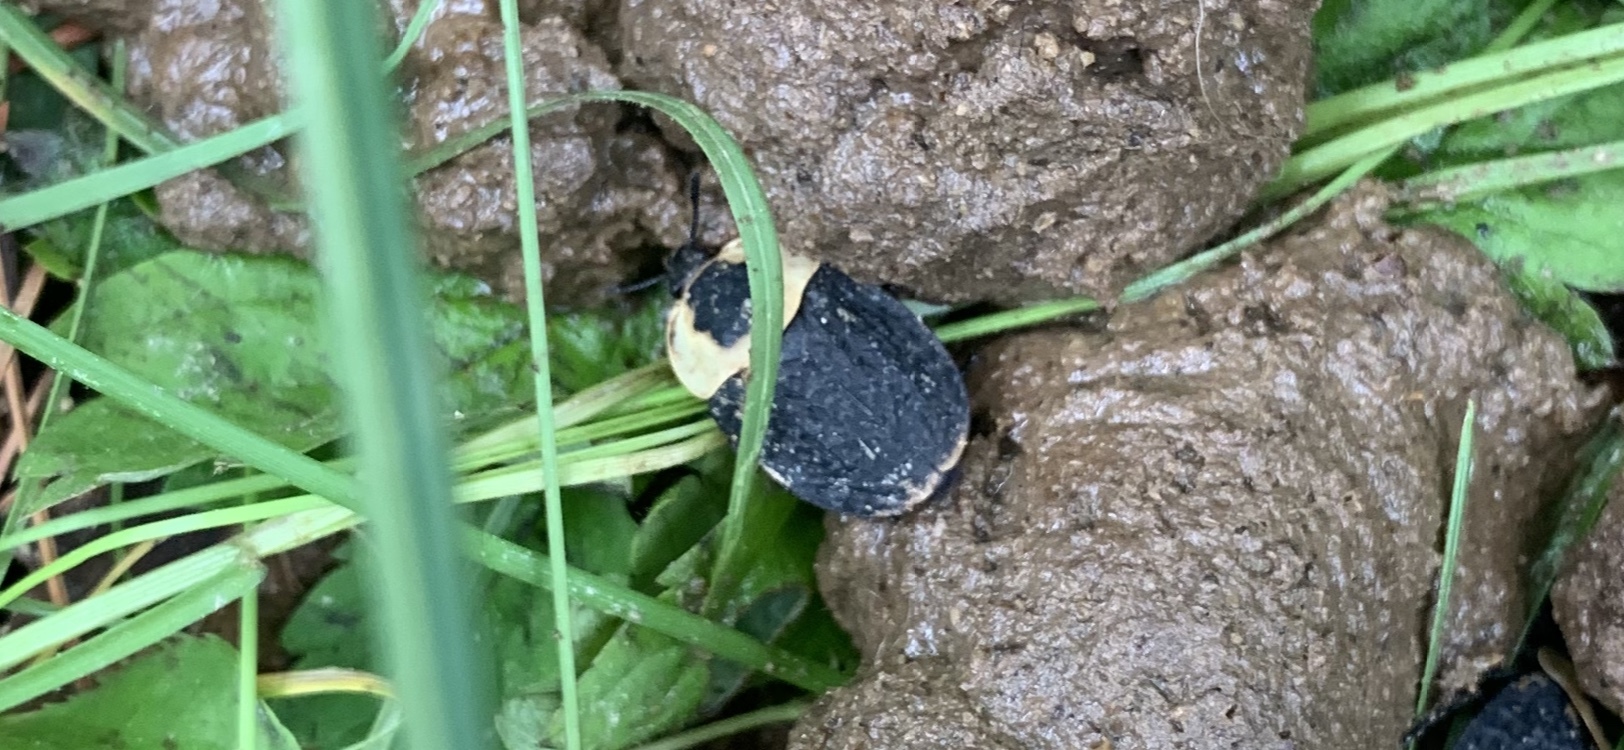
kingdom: Animalia
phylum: Arthropoda
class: Insecta
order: Coleoptera
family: Staphylinidae
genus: Necrophila
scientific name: Necrophila americana
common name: American carrion beetle
